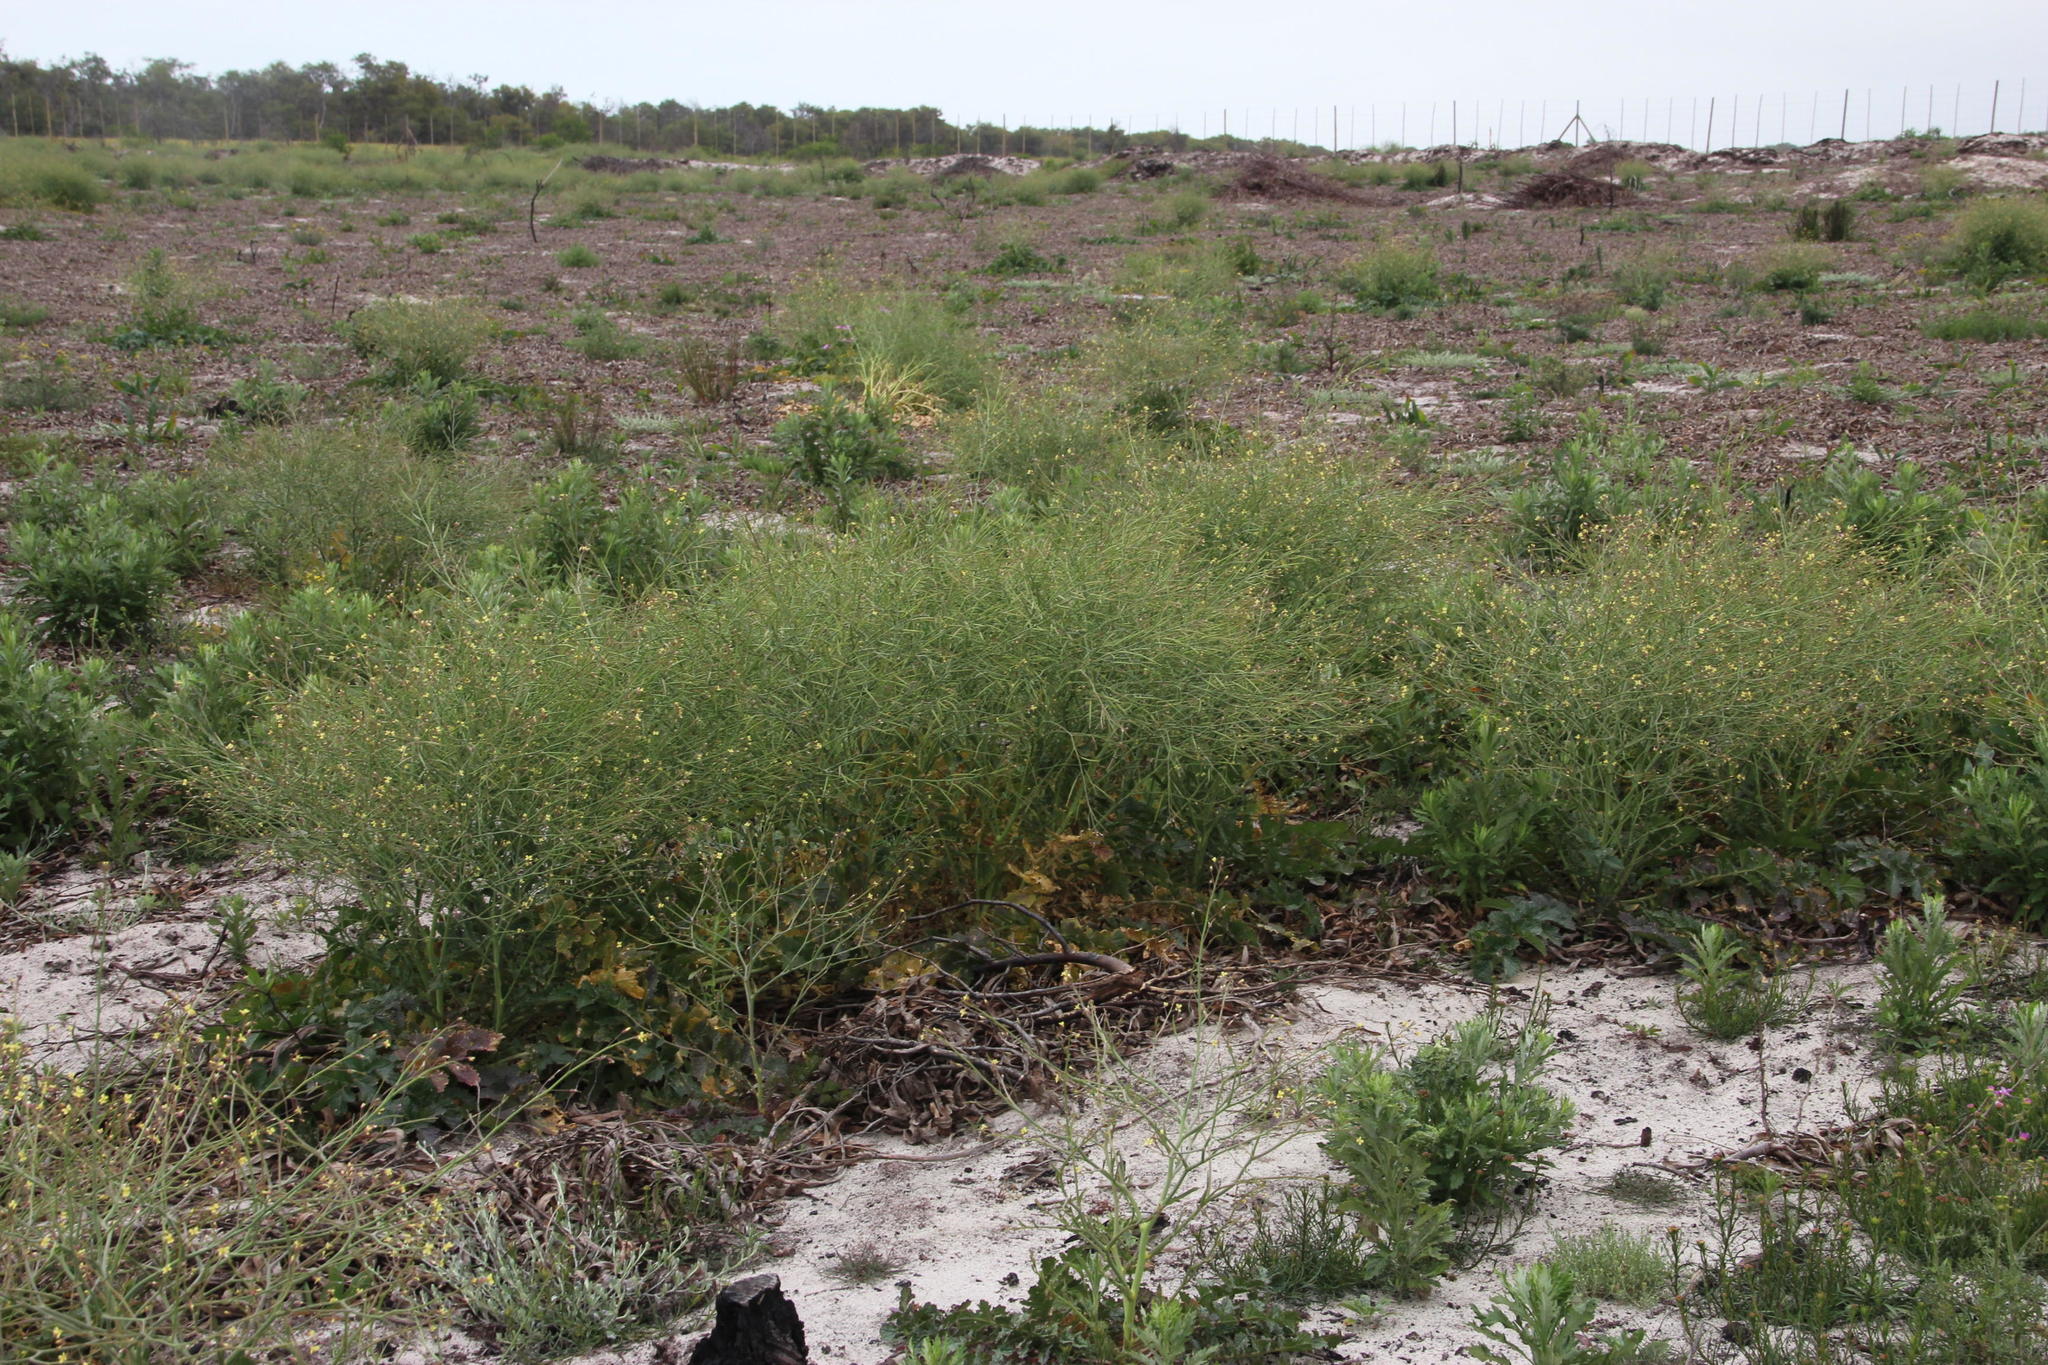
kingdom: Plantae
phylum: Tracheophyta
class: Magnoliopsida
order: Brassicales
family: Brassicaceae
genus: Brassica
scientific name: Brassica tournefortii
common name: Pale cabbage
